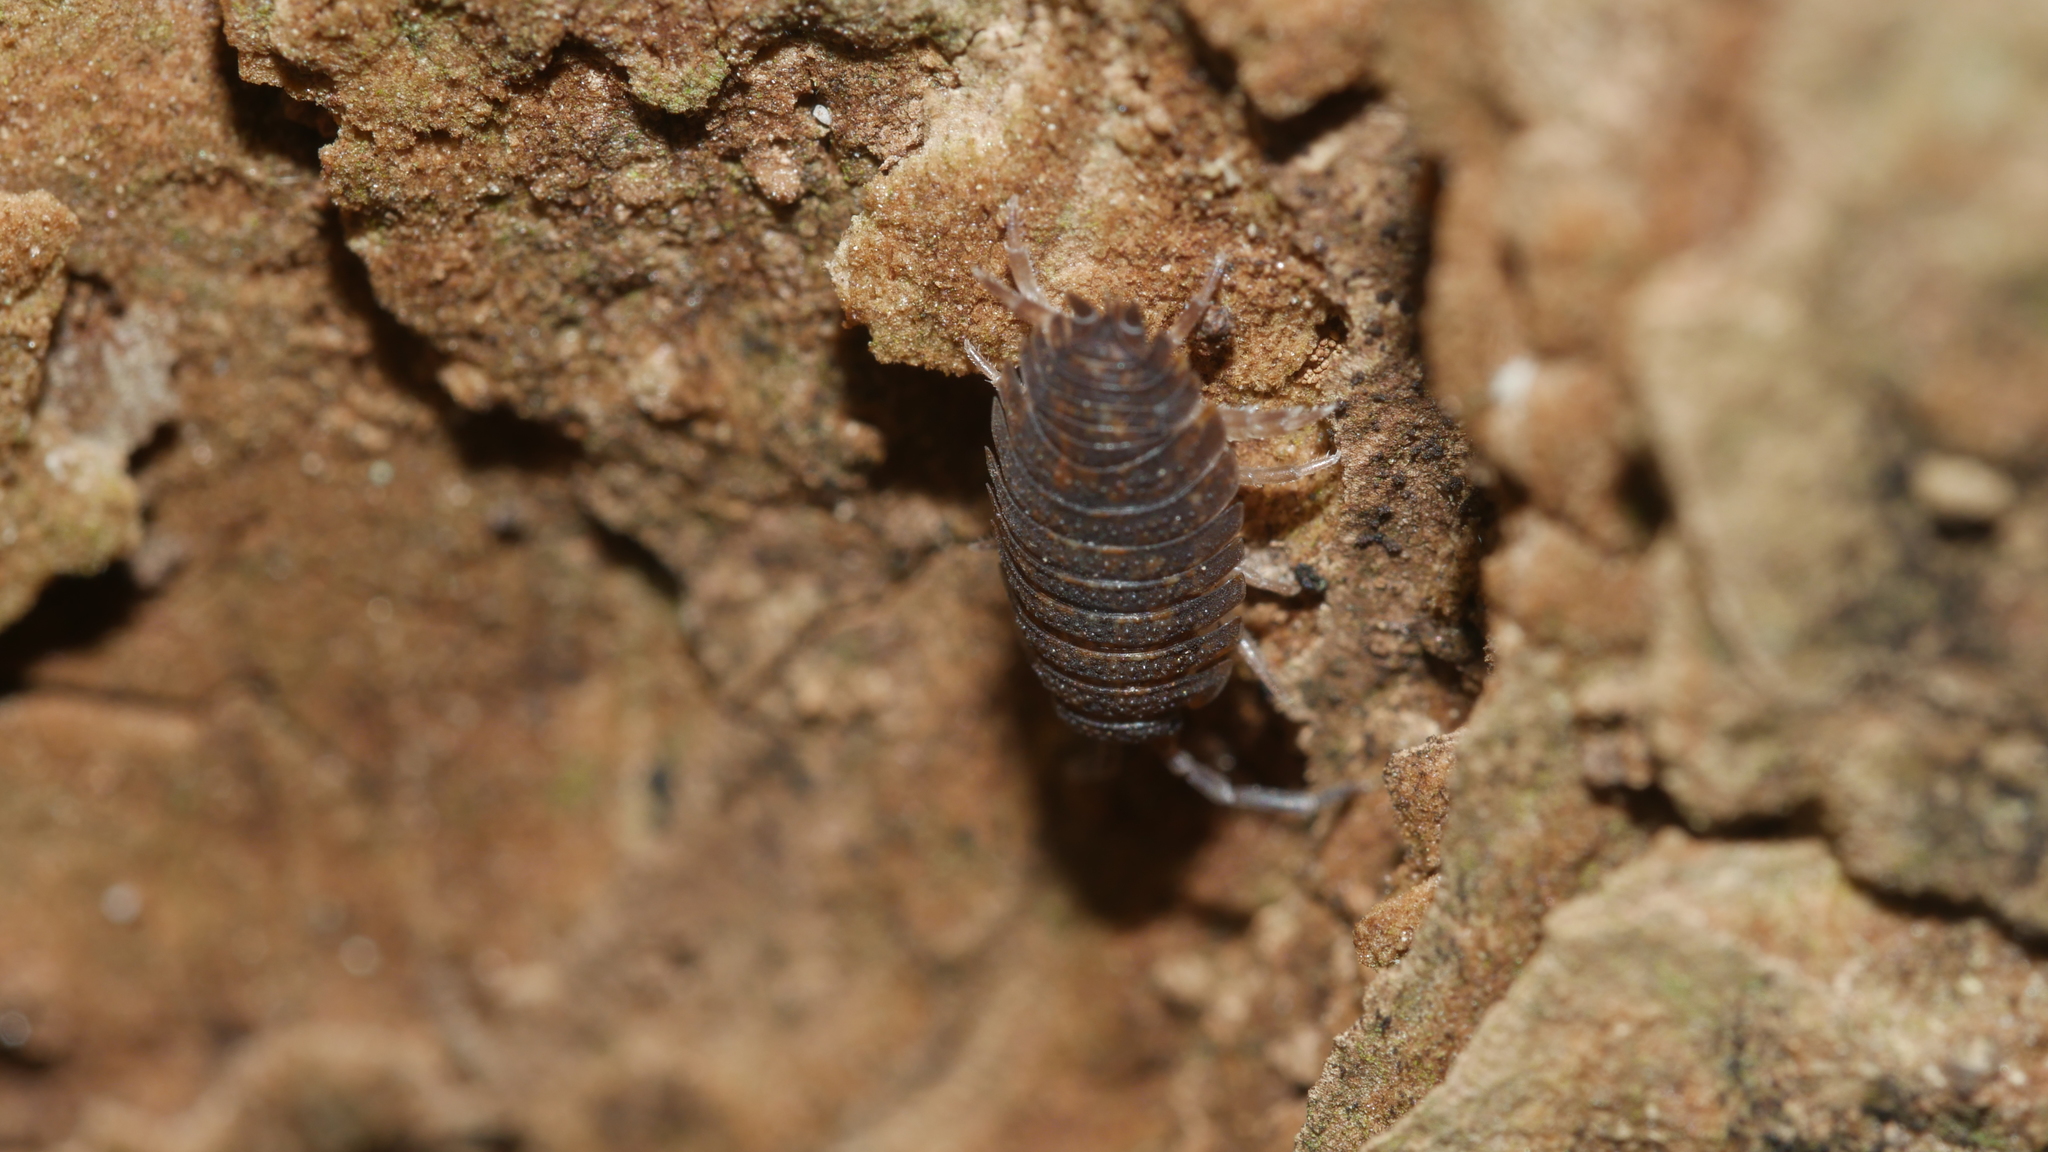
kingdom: Animalia
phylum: Arthropoda
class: Malacostraca
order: Isopoda
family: Porcellionidae
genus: Porcellio
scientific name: Porcellio scaber
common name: Common rough woodlouse
